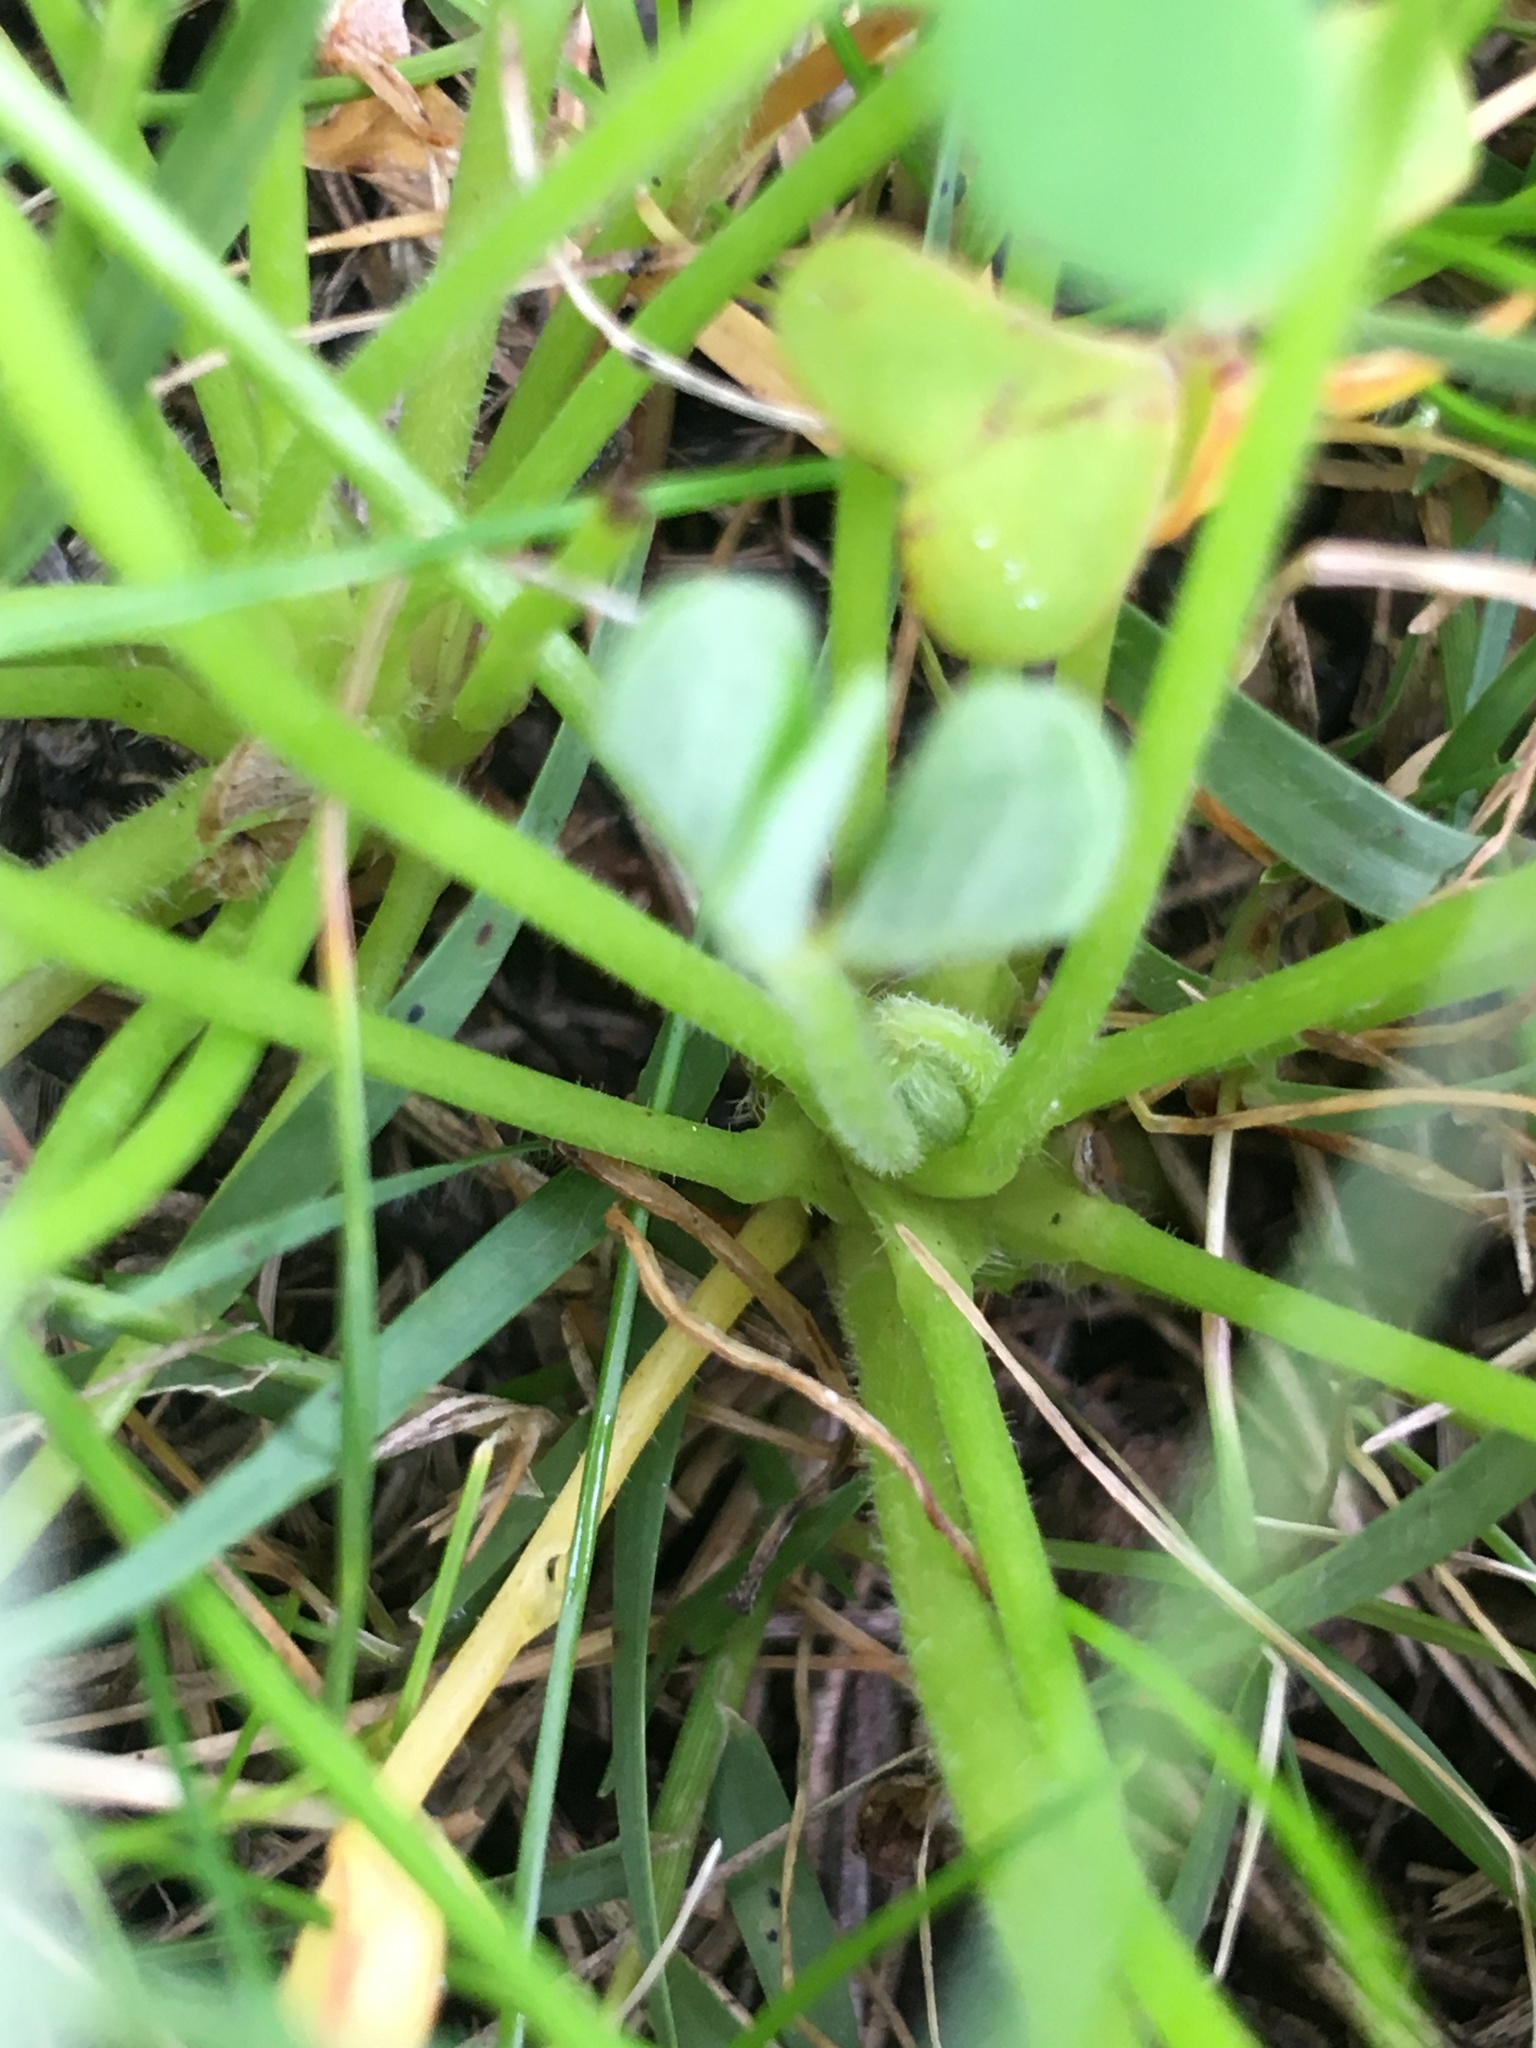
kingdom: Plantae
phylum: Tracheophyta
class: Magnoliopsida
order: Oxalidales
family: Oxalidaceae
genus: Oxalis
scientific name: Oxalis pes-caprae
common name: Bermuda-buttercup
